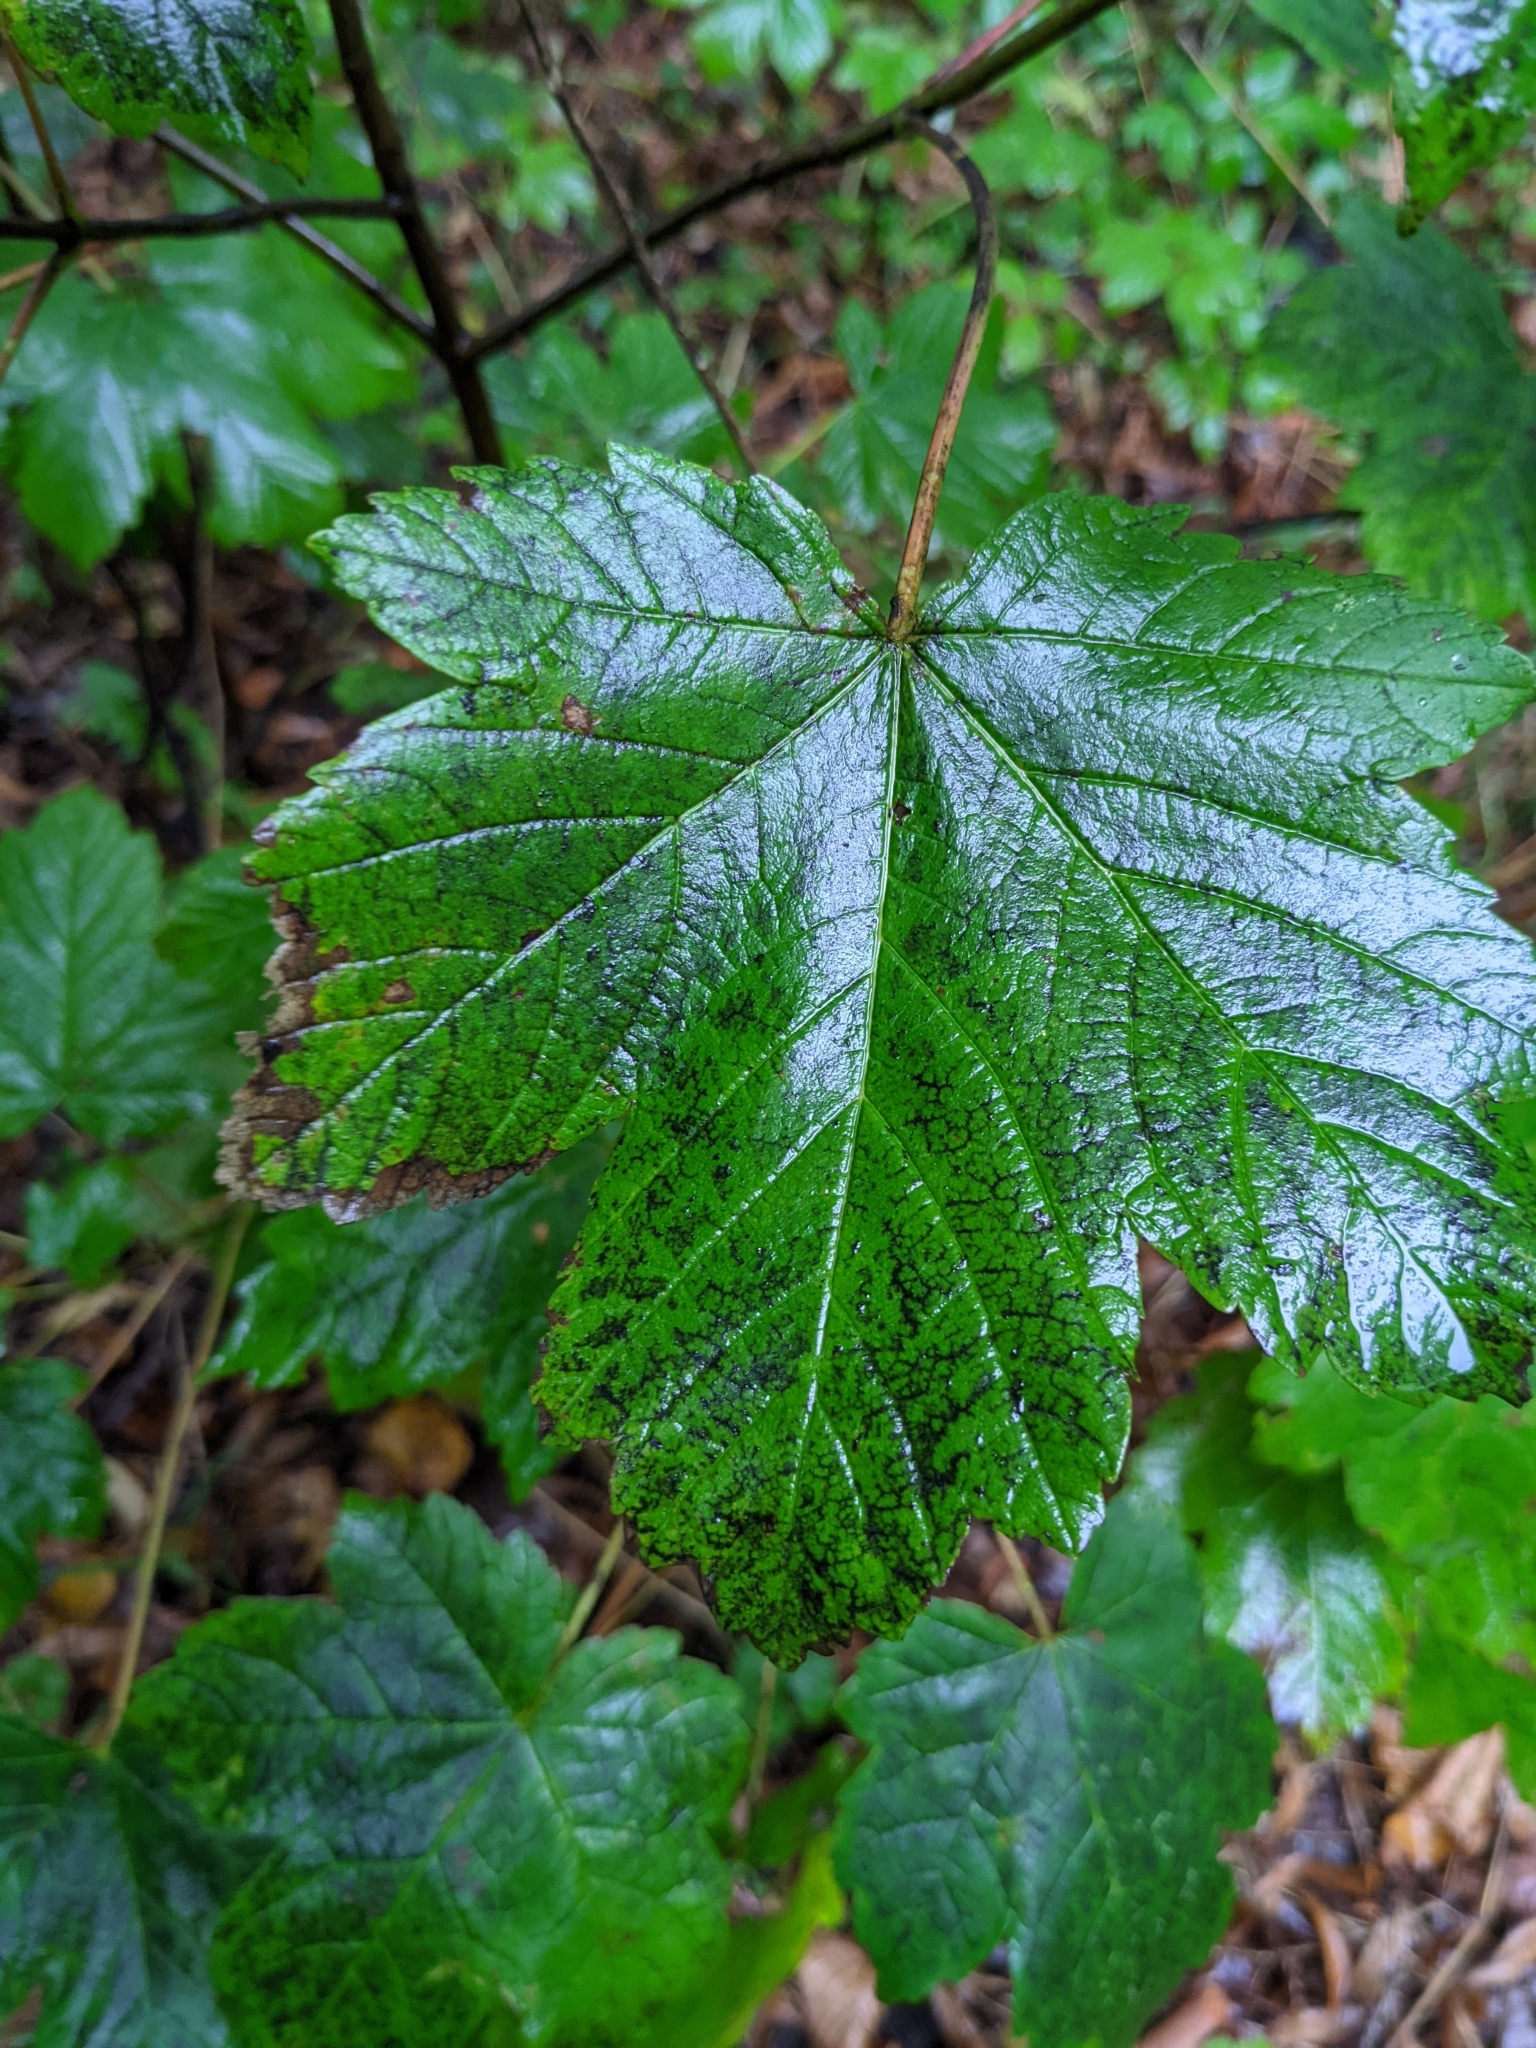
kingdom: Plantae
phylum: Tracheophyta
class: Magnoliopsida
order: Sapindales
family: Sapindaceae
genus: Acer
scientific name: Acer pseudoplatanus
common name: Sycamore
